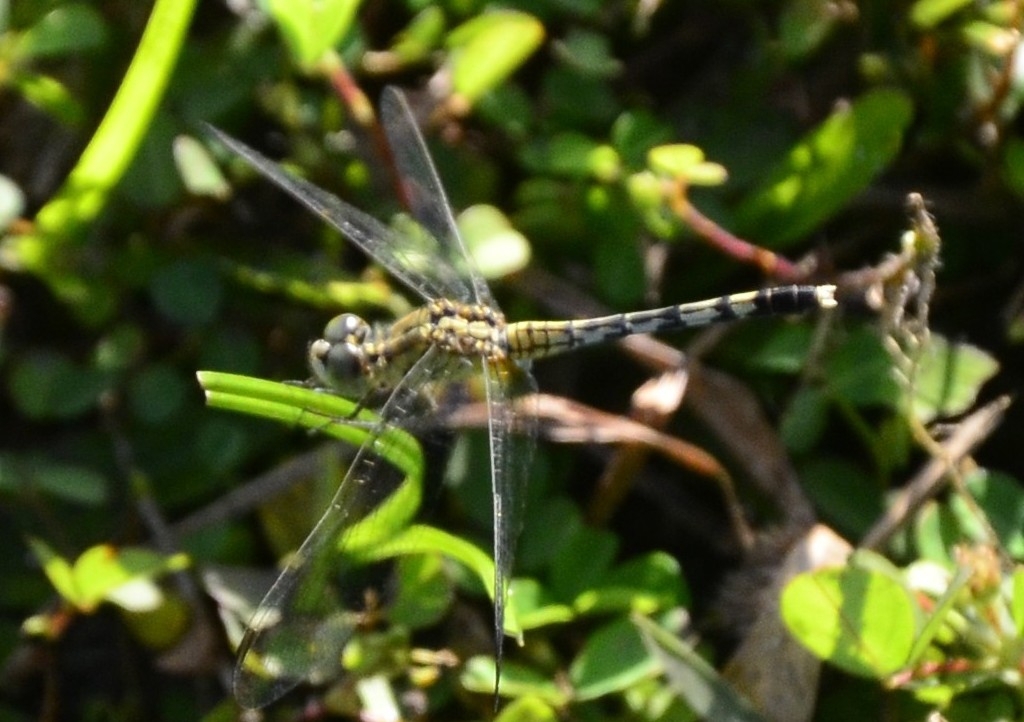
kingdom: Animalia
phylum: Arthropoda
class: Insecta
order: Odonata
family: Libellulidae
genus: Diplacodes
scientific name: Diplacodes trivialis
